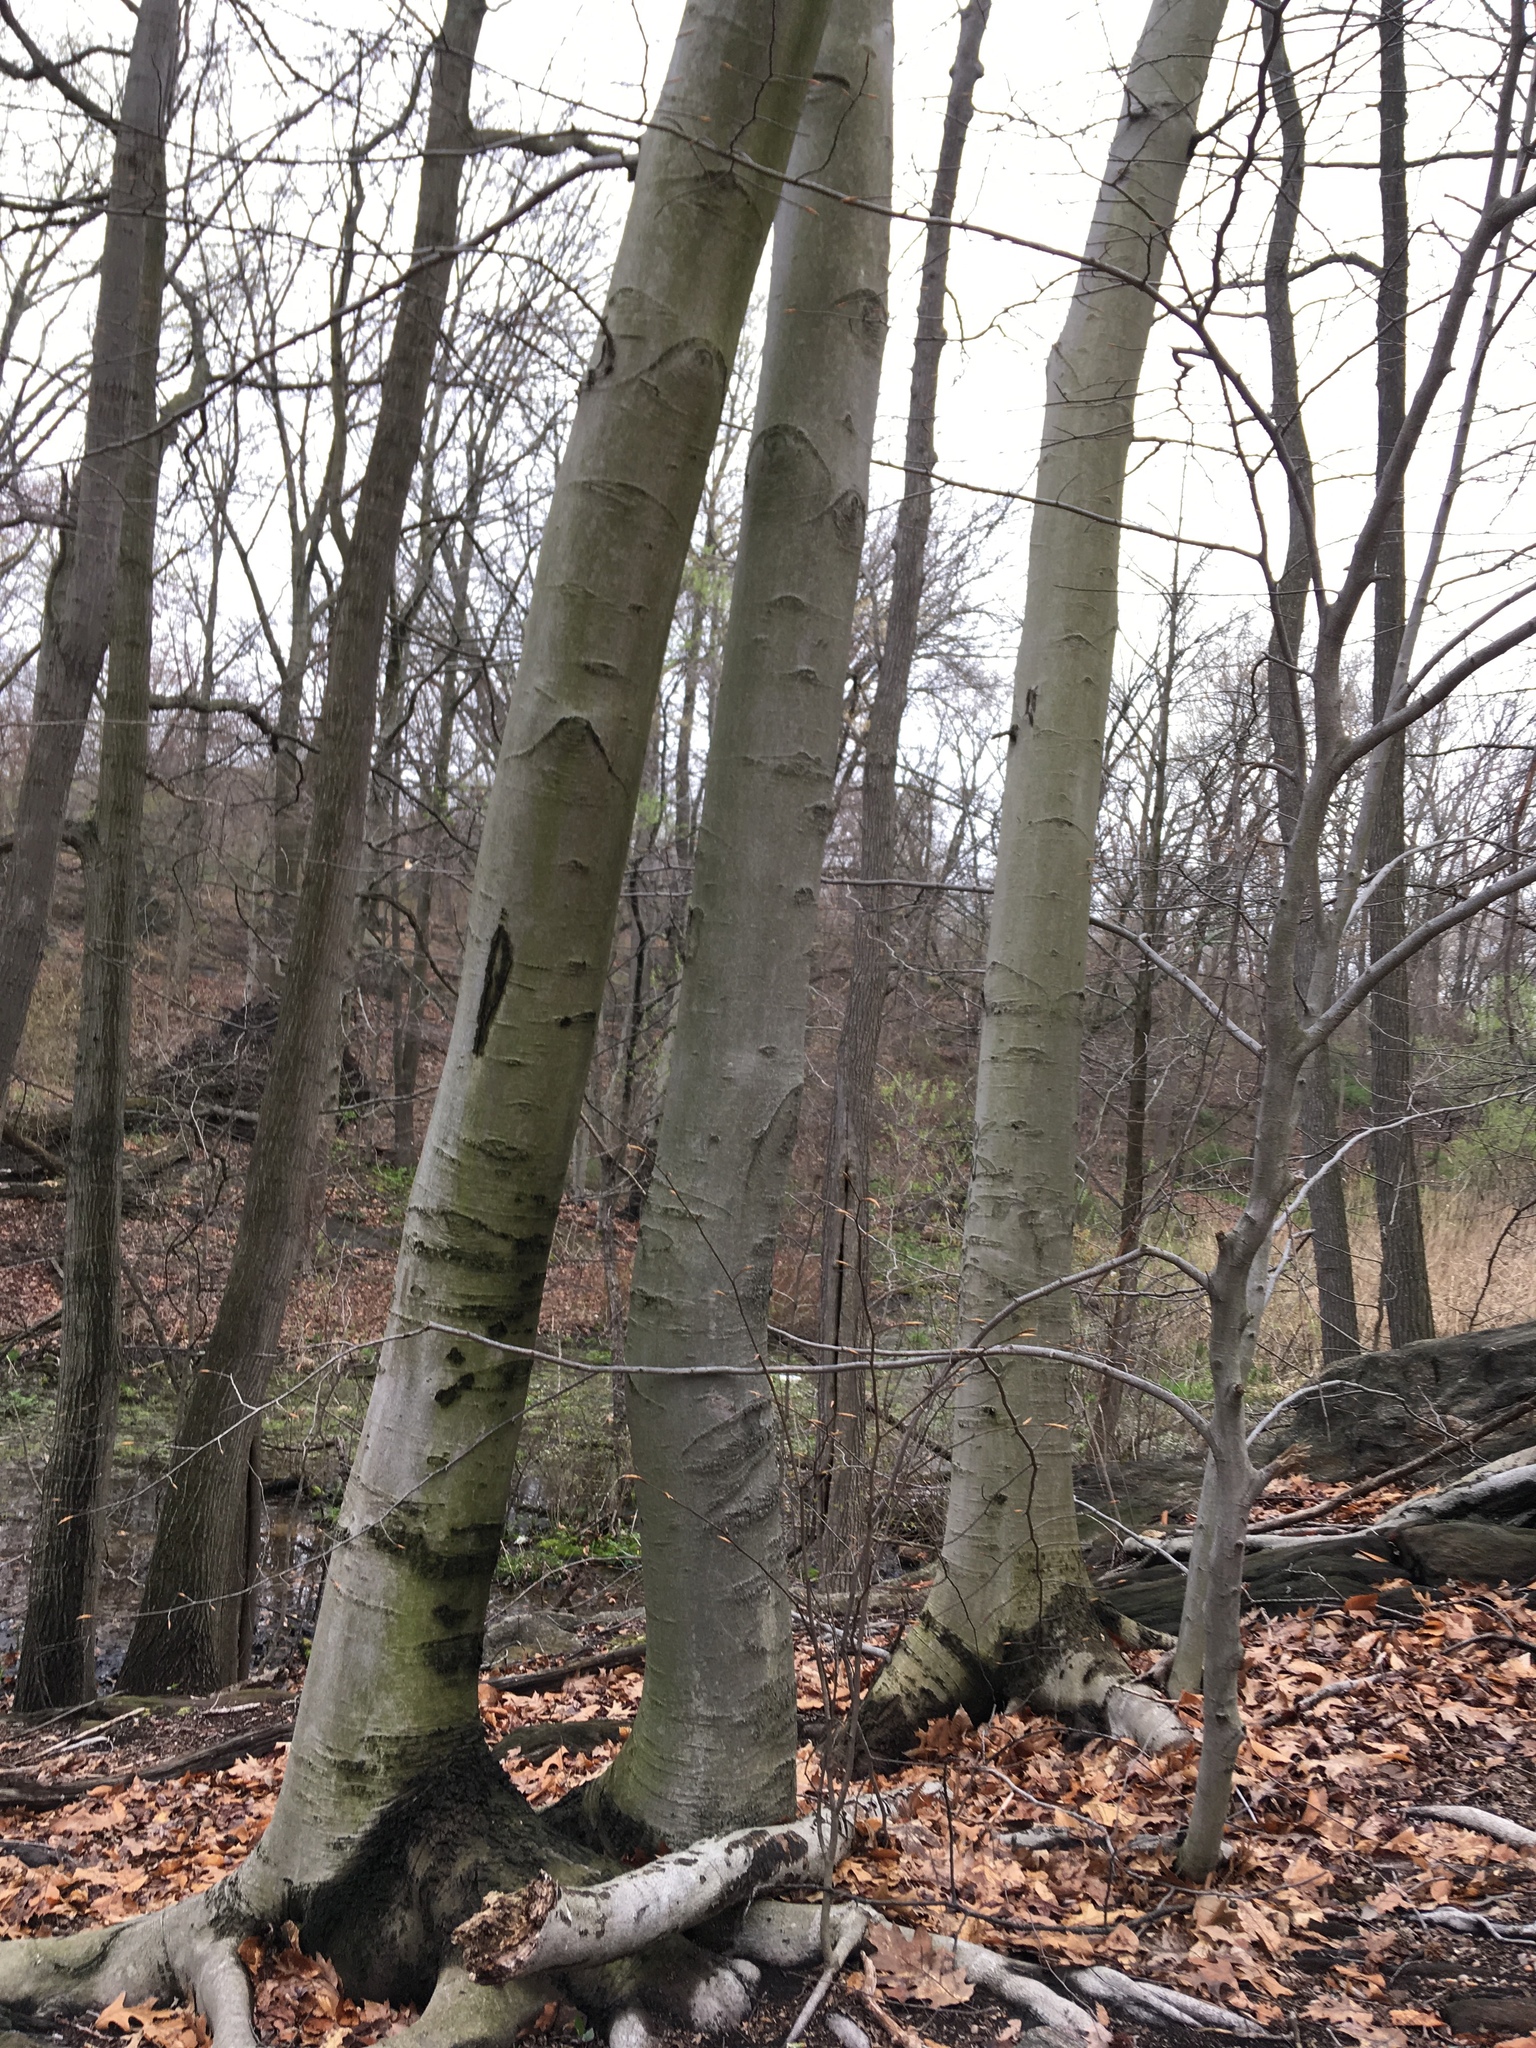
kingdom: Plantae
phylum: Tracheophyta
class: Magnoliopsida
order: Fagales
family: Fagaceae
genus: Fagus
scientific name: Fagus grandifolia
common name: American beech
